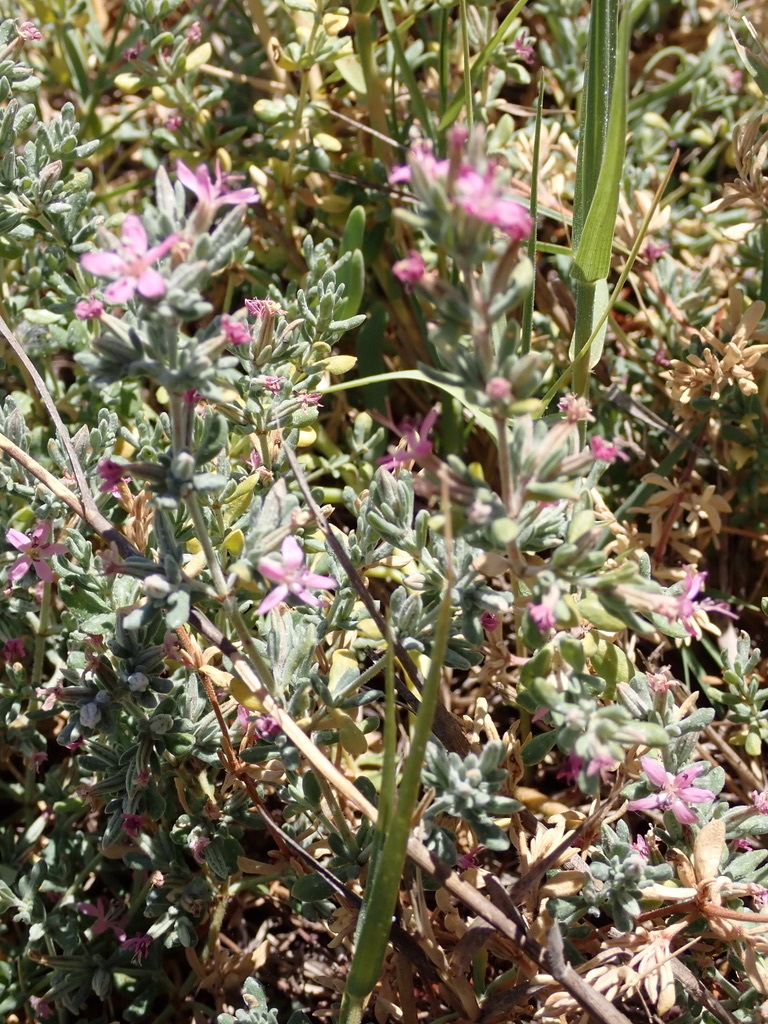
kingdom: Plantae
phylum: Tracheophyta
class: Magnoliopsida
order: Caryophyllales
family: Frankeniaceae
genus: Frankenia
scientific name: Frankenia salina
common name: Alkali seaheath
